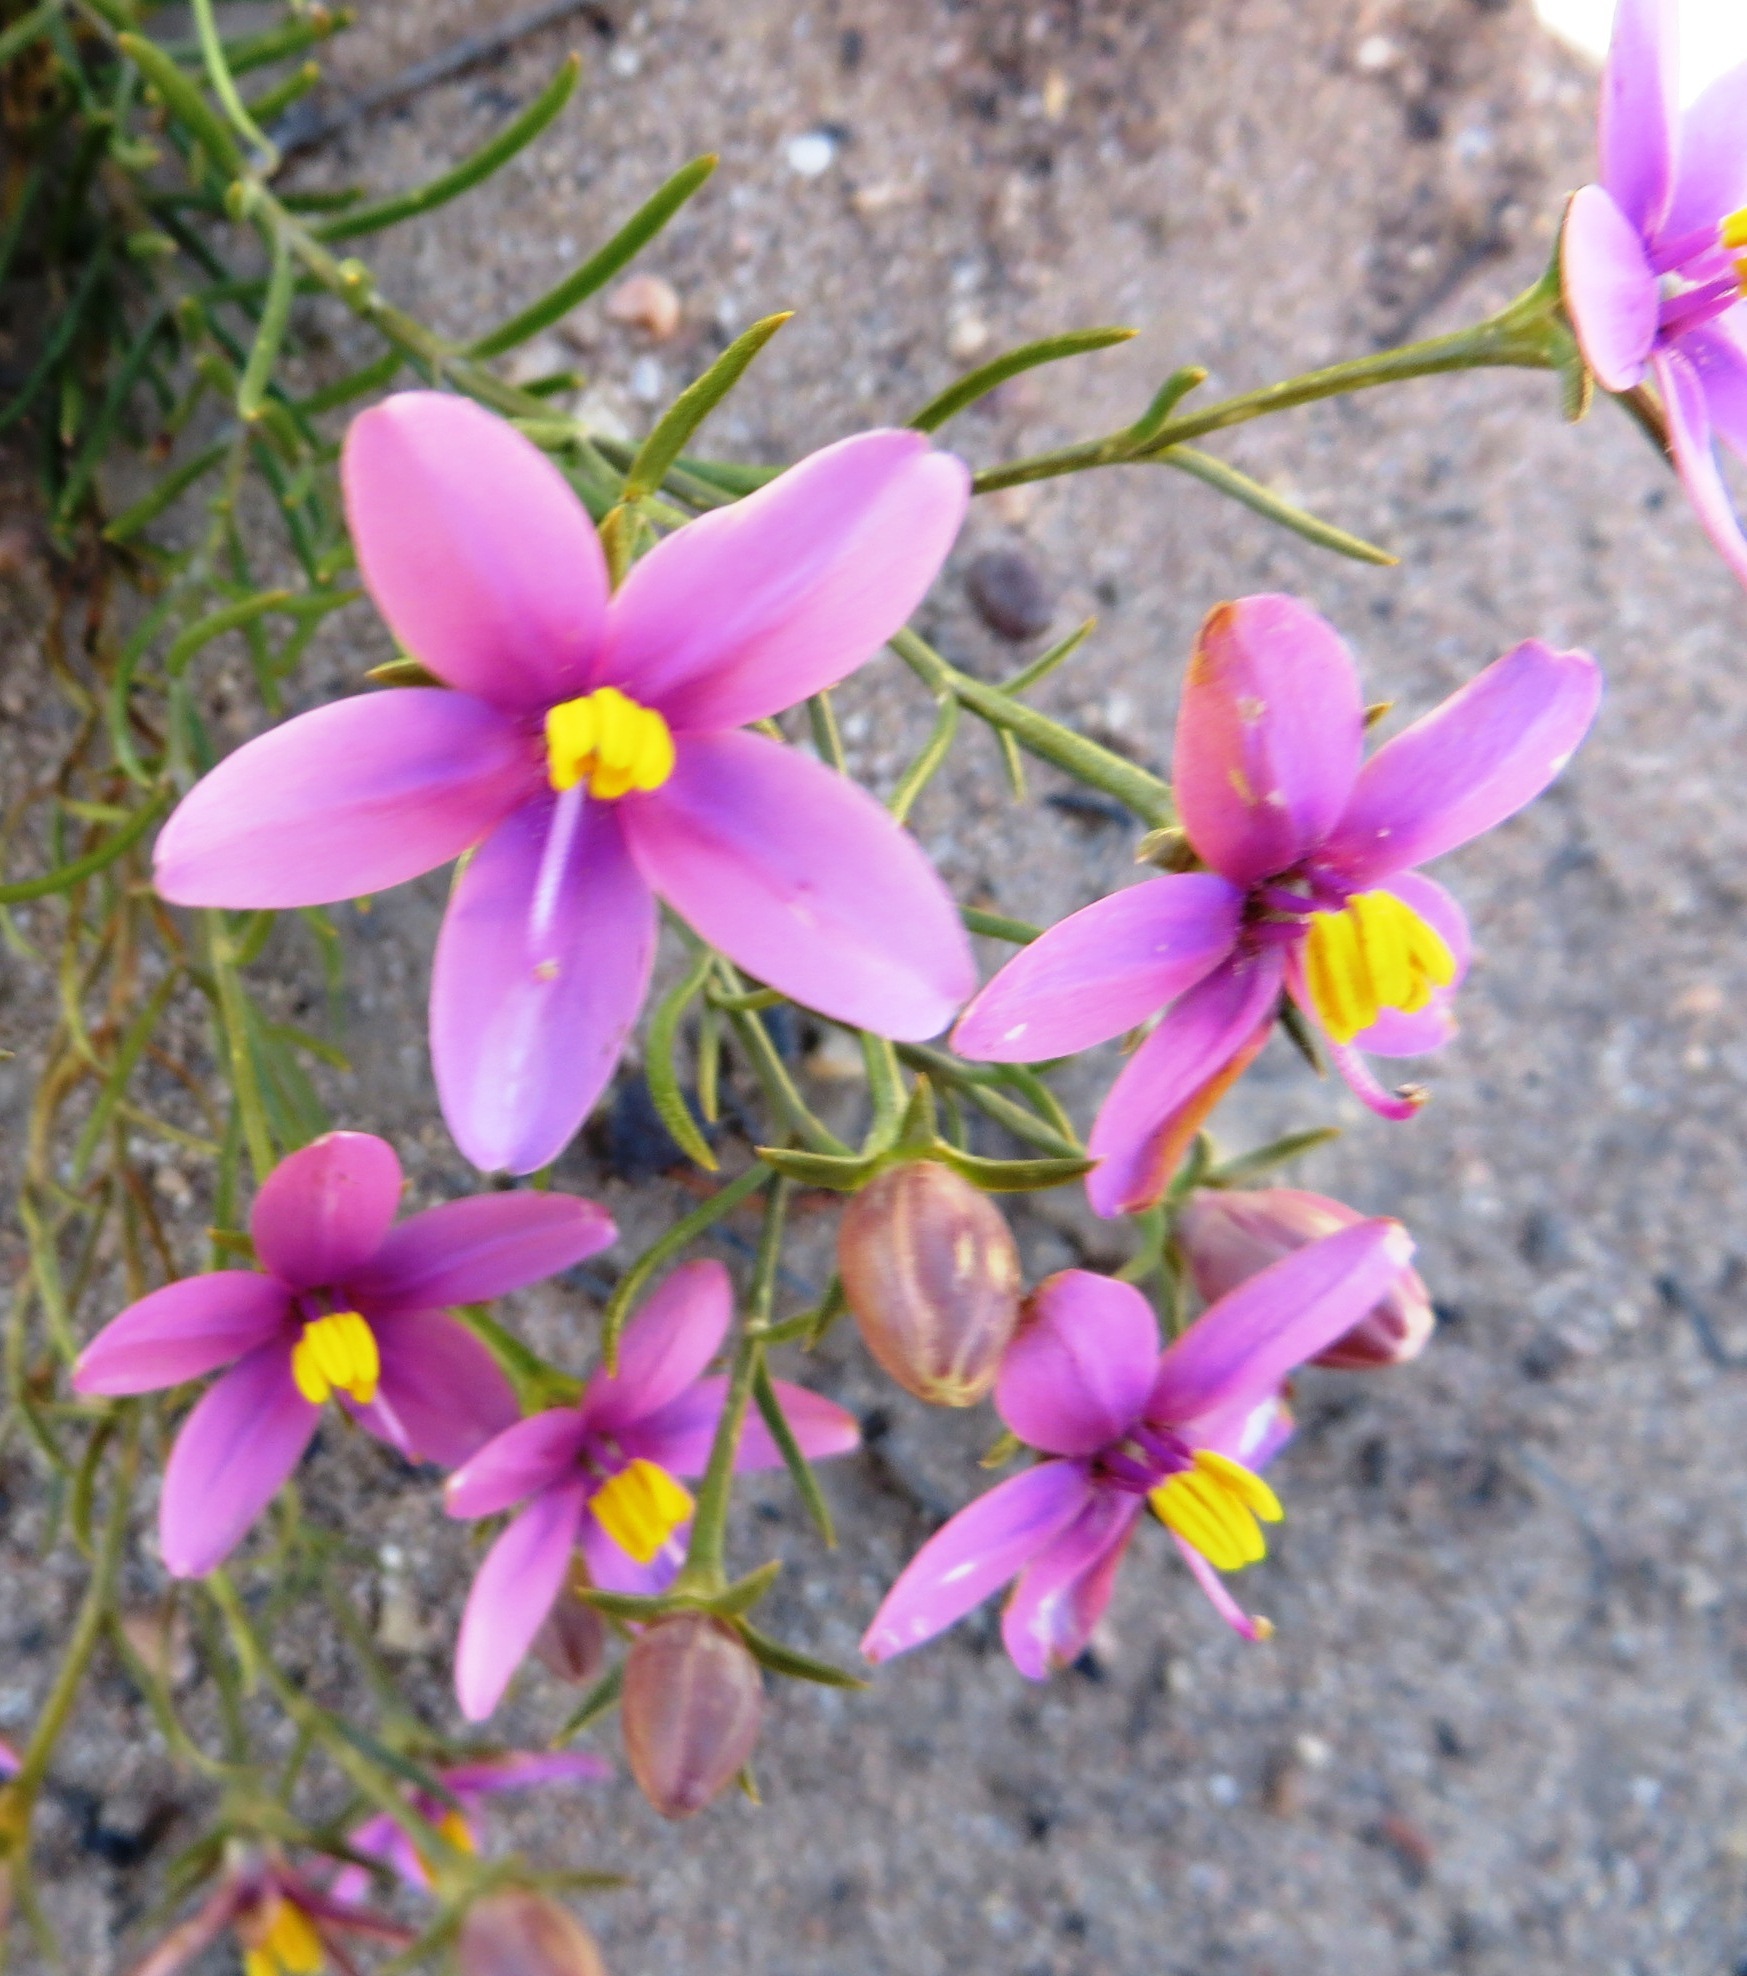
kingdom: Plantae
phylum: Tracheophyta
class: Magnoliopsida
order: Gentianales
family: Gentianaceae
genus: Chironia
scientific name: Chironia linoides
